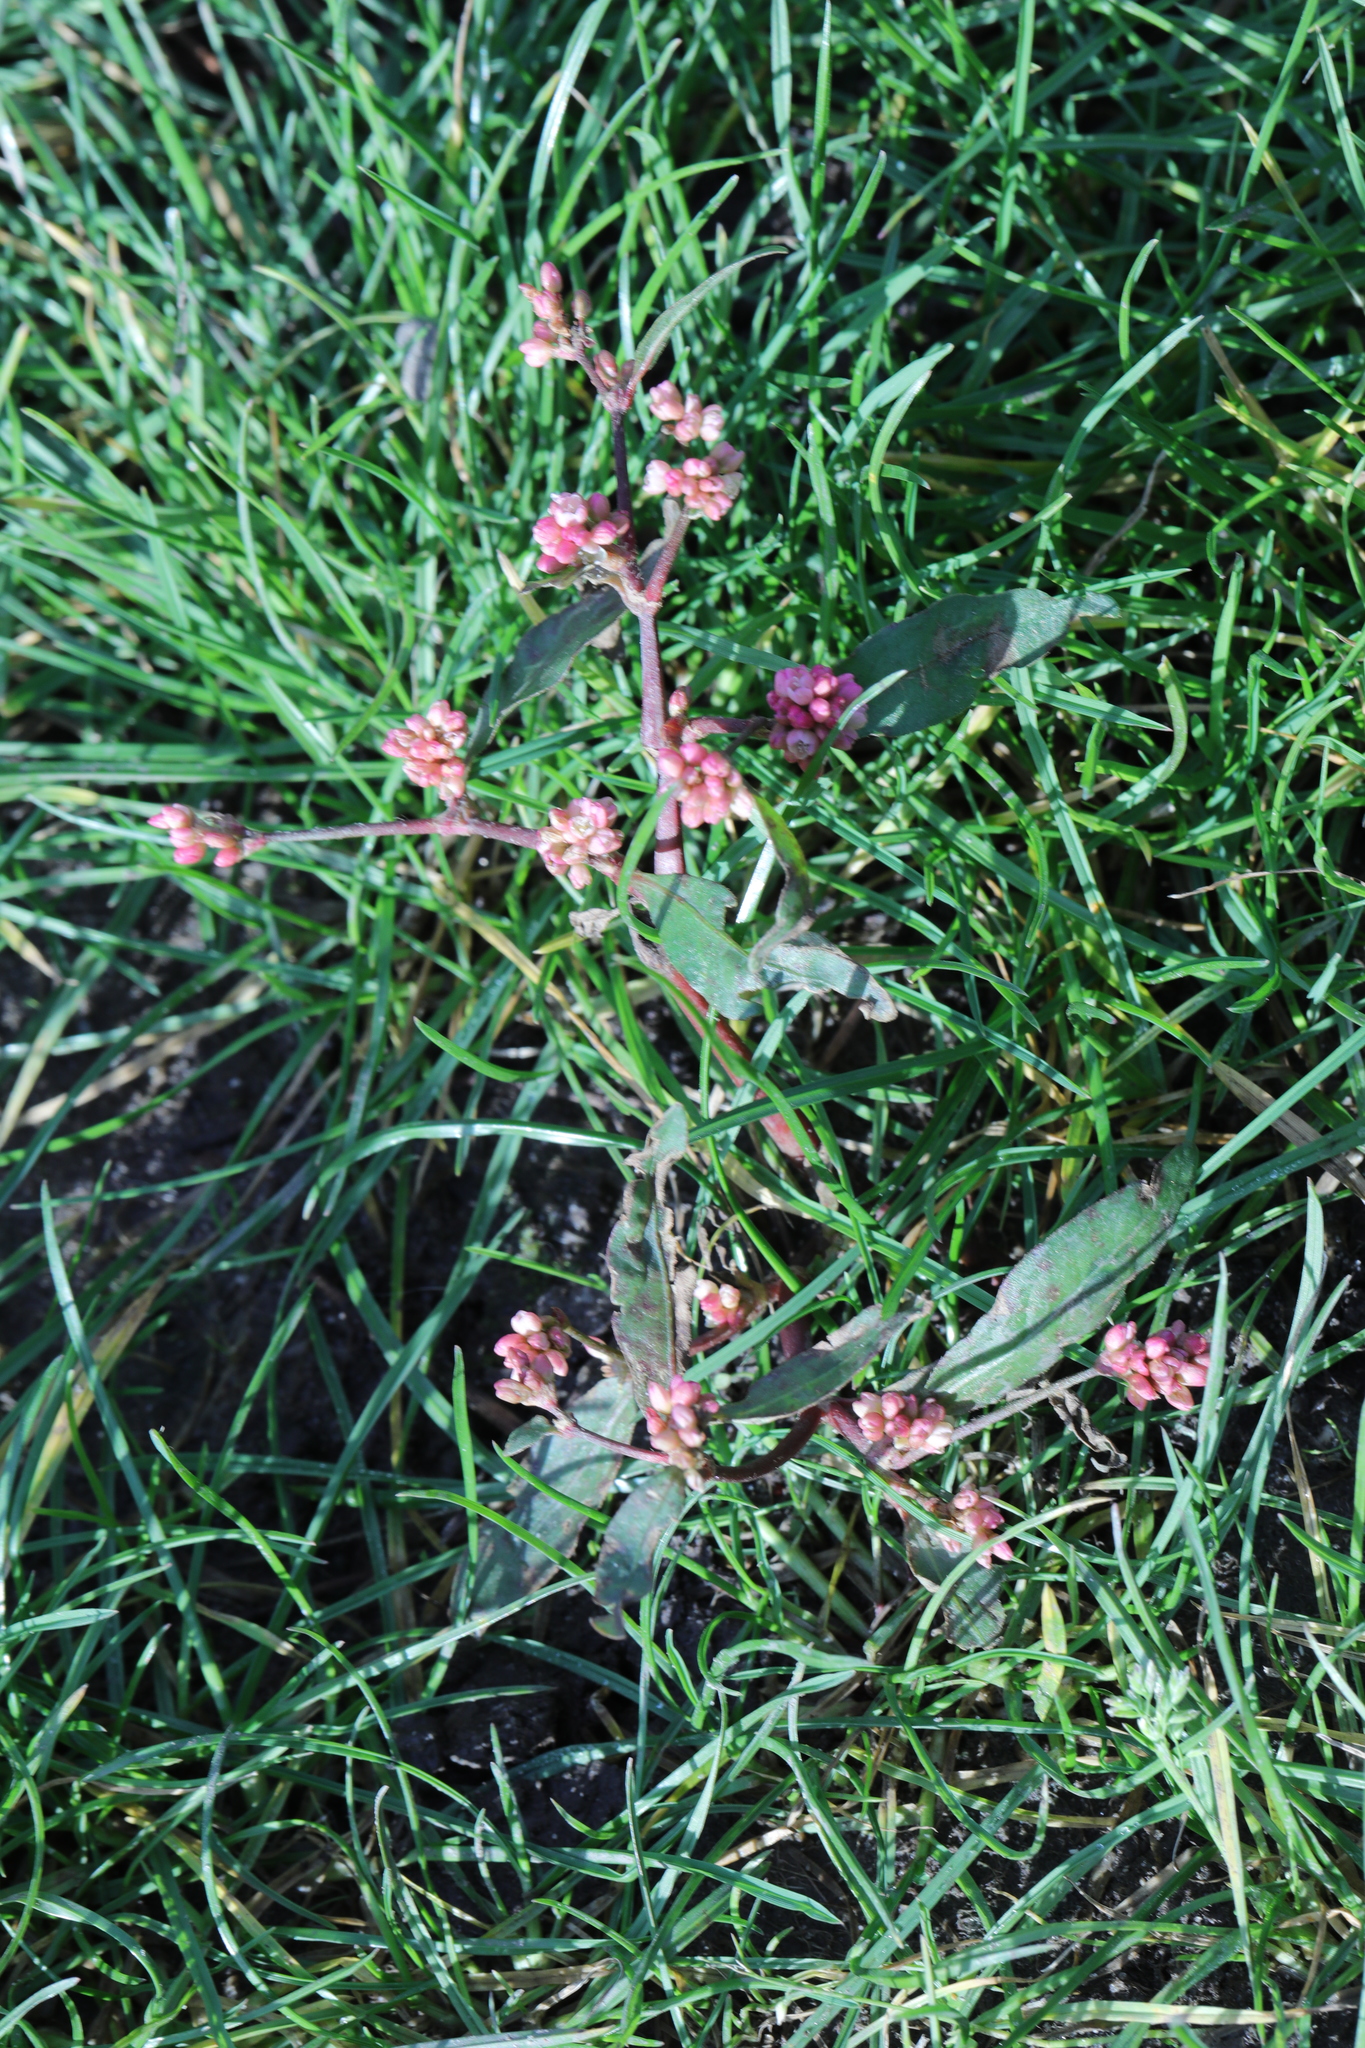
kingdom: Plantae
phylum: Tracheophyta
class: Magnoliopsida
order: Caryophyllales
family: Polygonaceae
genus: Persicaria
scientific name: Persicaria maculosa
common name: Redshank
